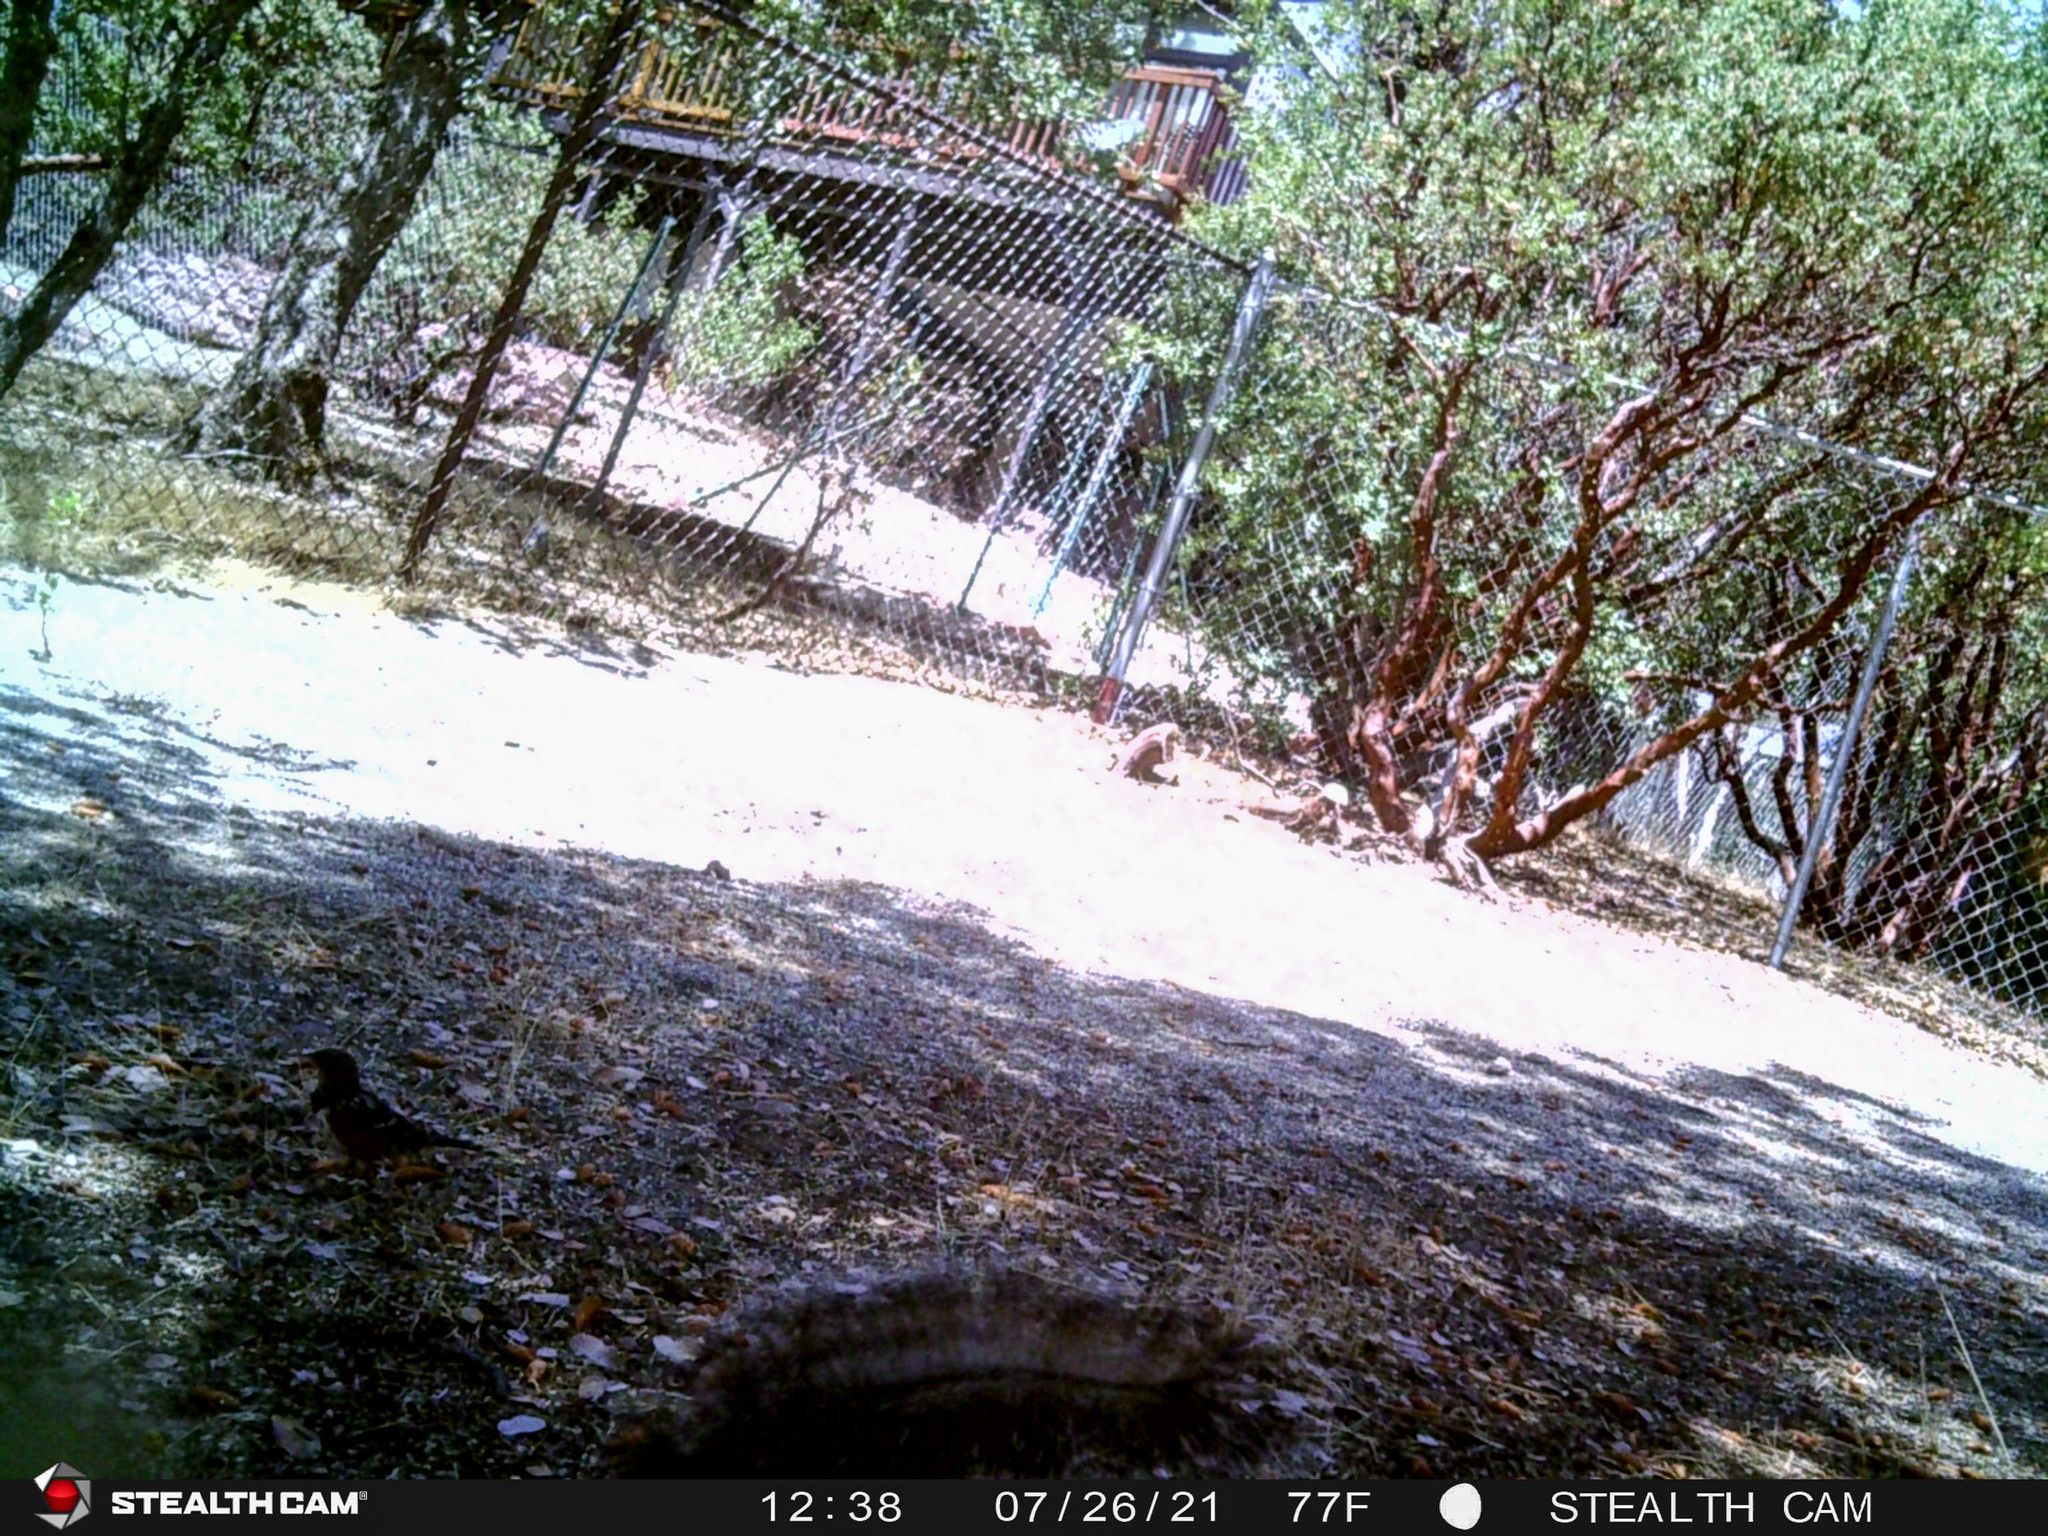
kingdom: Animalia
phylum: Chordata
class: Mammalia
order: Rodentia
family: Sciuridae
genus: Sciurus
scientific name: Sciurus griseus
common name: Western gray squirrel
